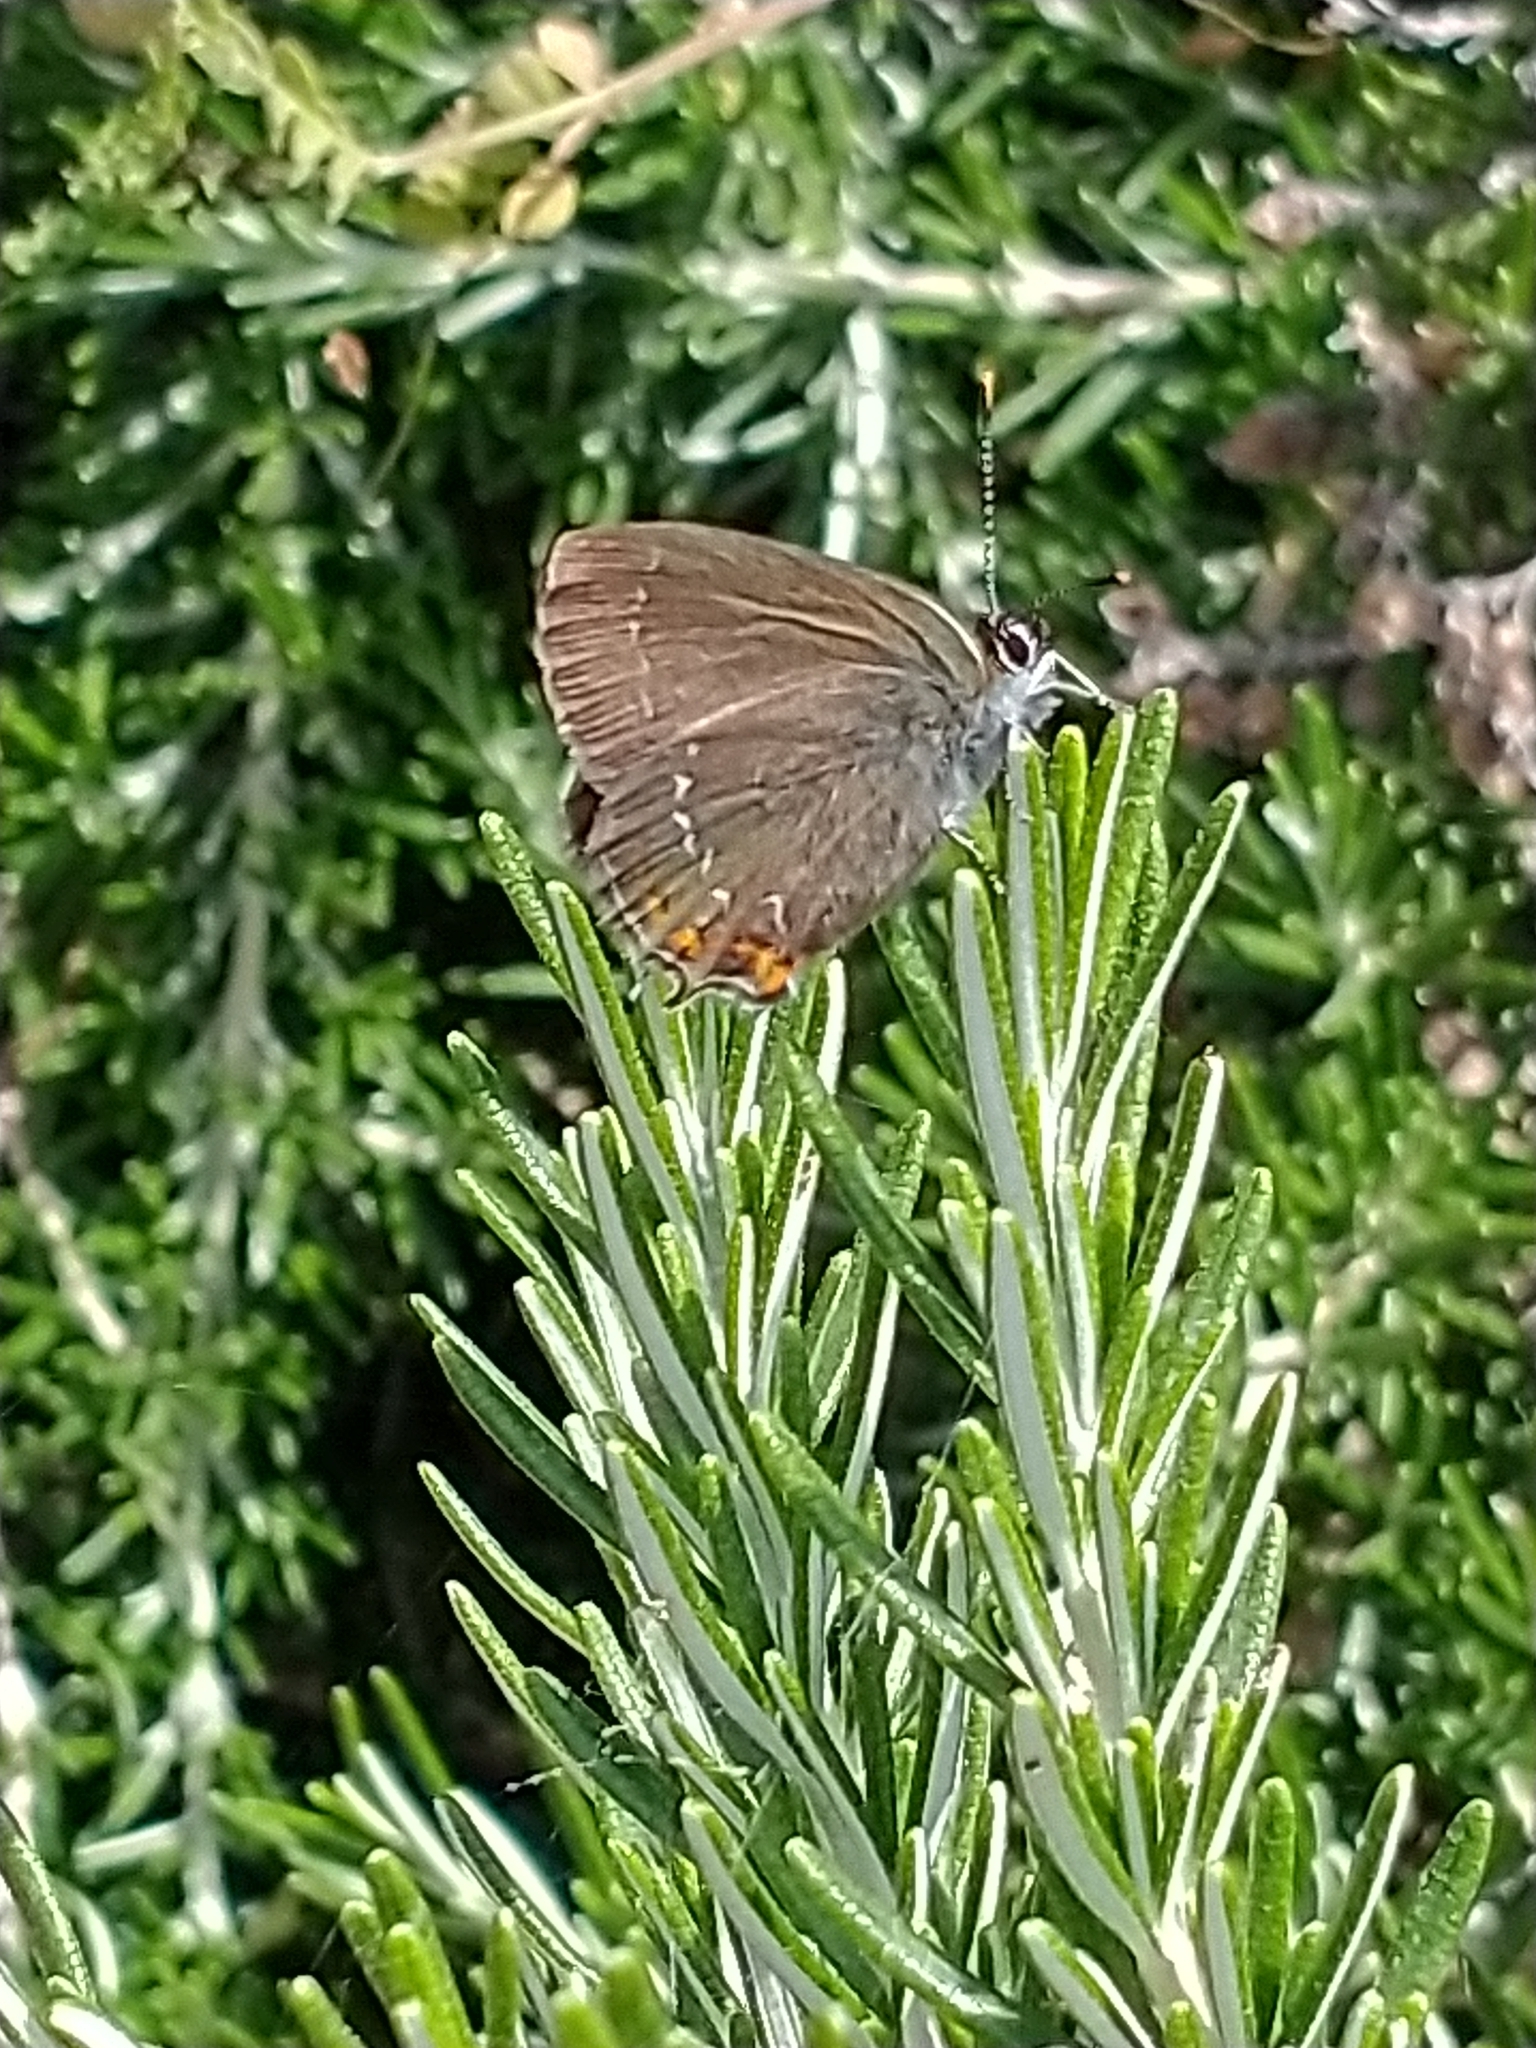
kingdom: Animalia
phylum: Arthropoda
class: Insecta
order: Lepidoptera
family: Lycaenidae
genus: Nordmannia
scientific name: Nordmannia ilicis
